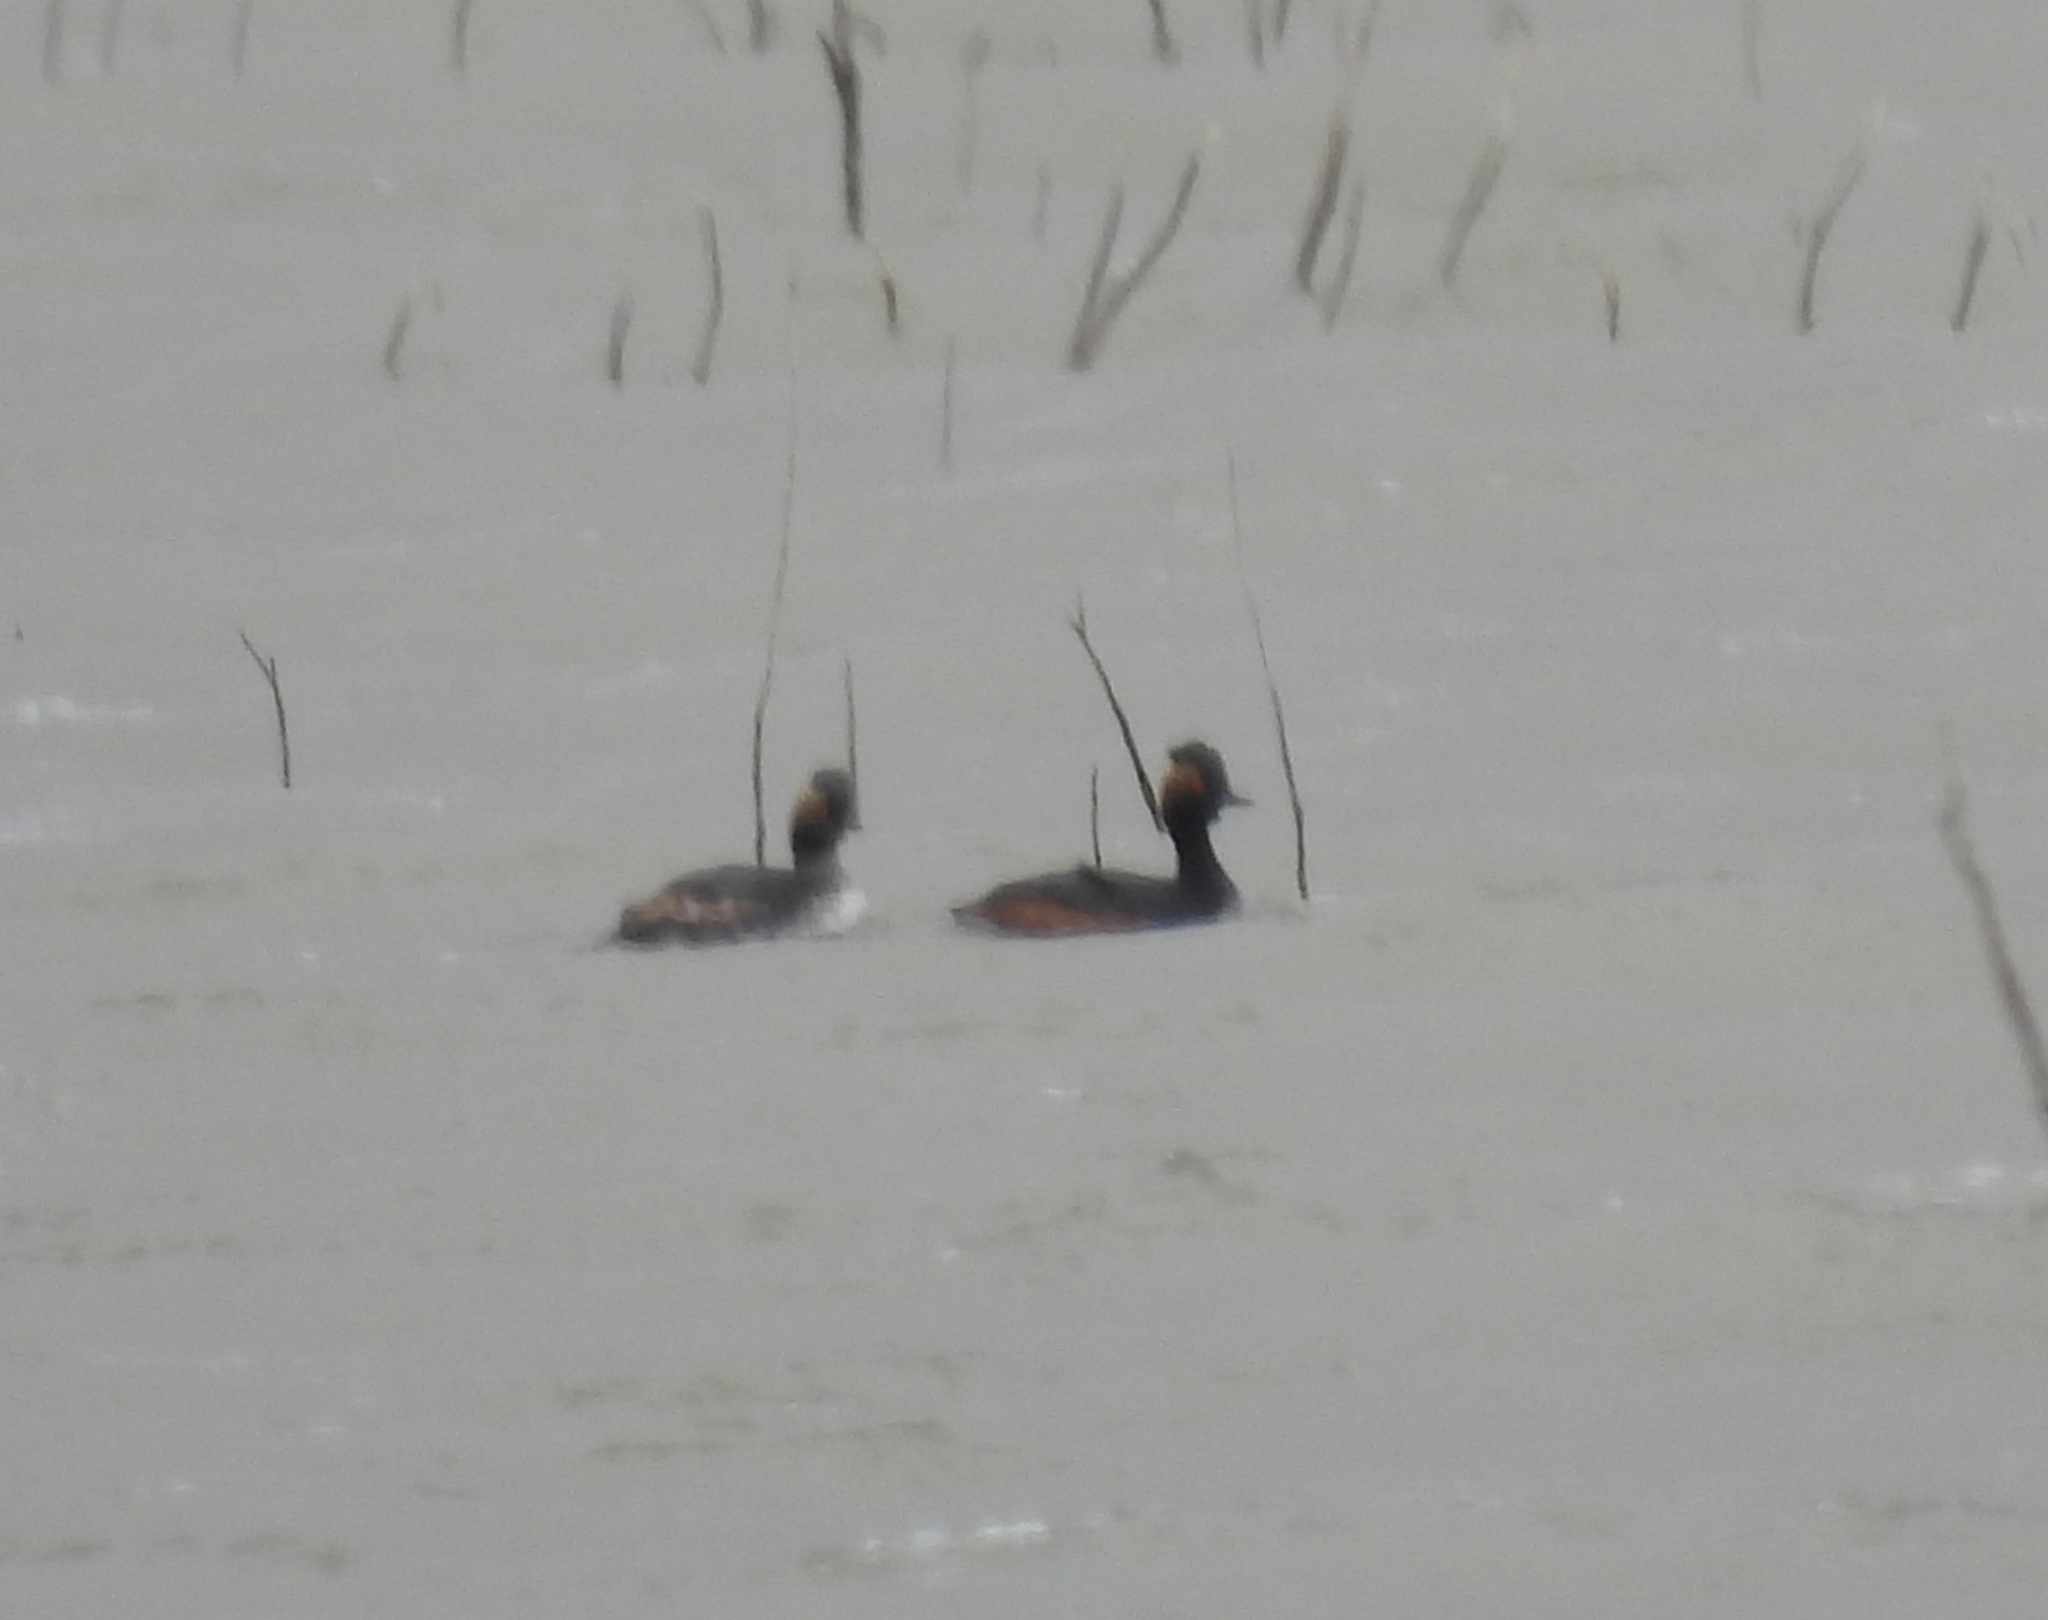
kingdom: Animalia
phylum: Chordata
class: Aves
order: Podicipediformes
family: Podicipedidae
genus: Podiceps
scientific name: Podiceps nigricollis
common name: Black-necked grebe
